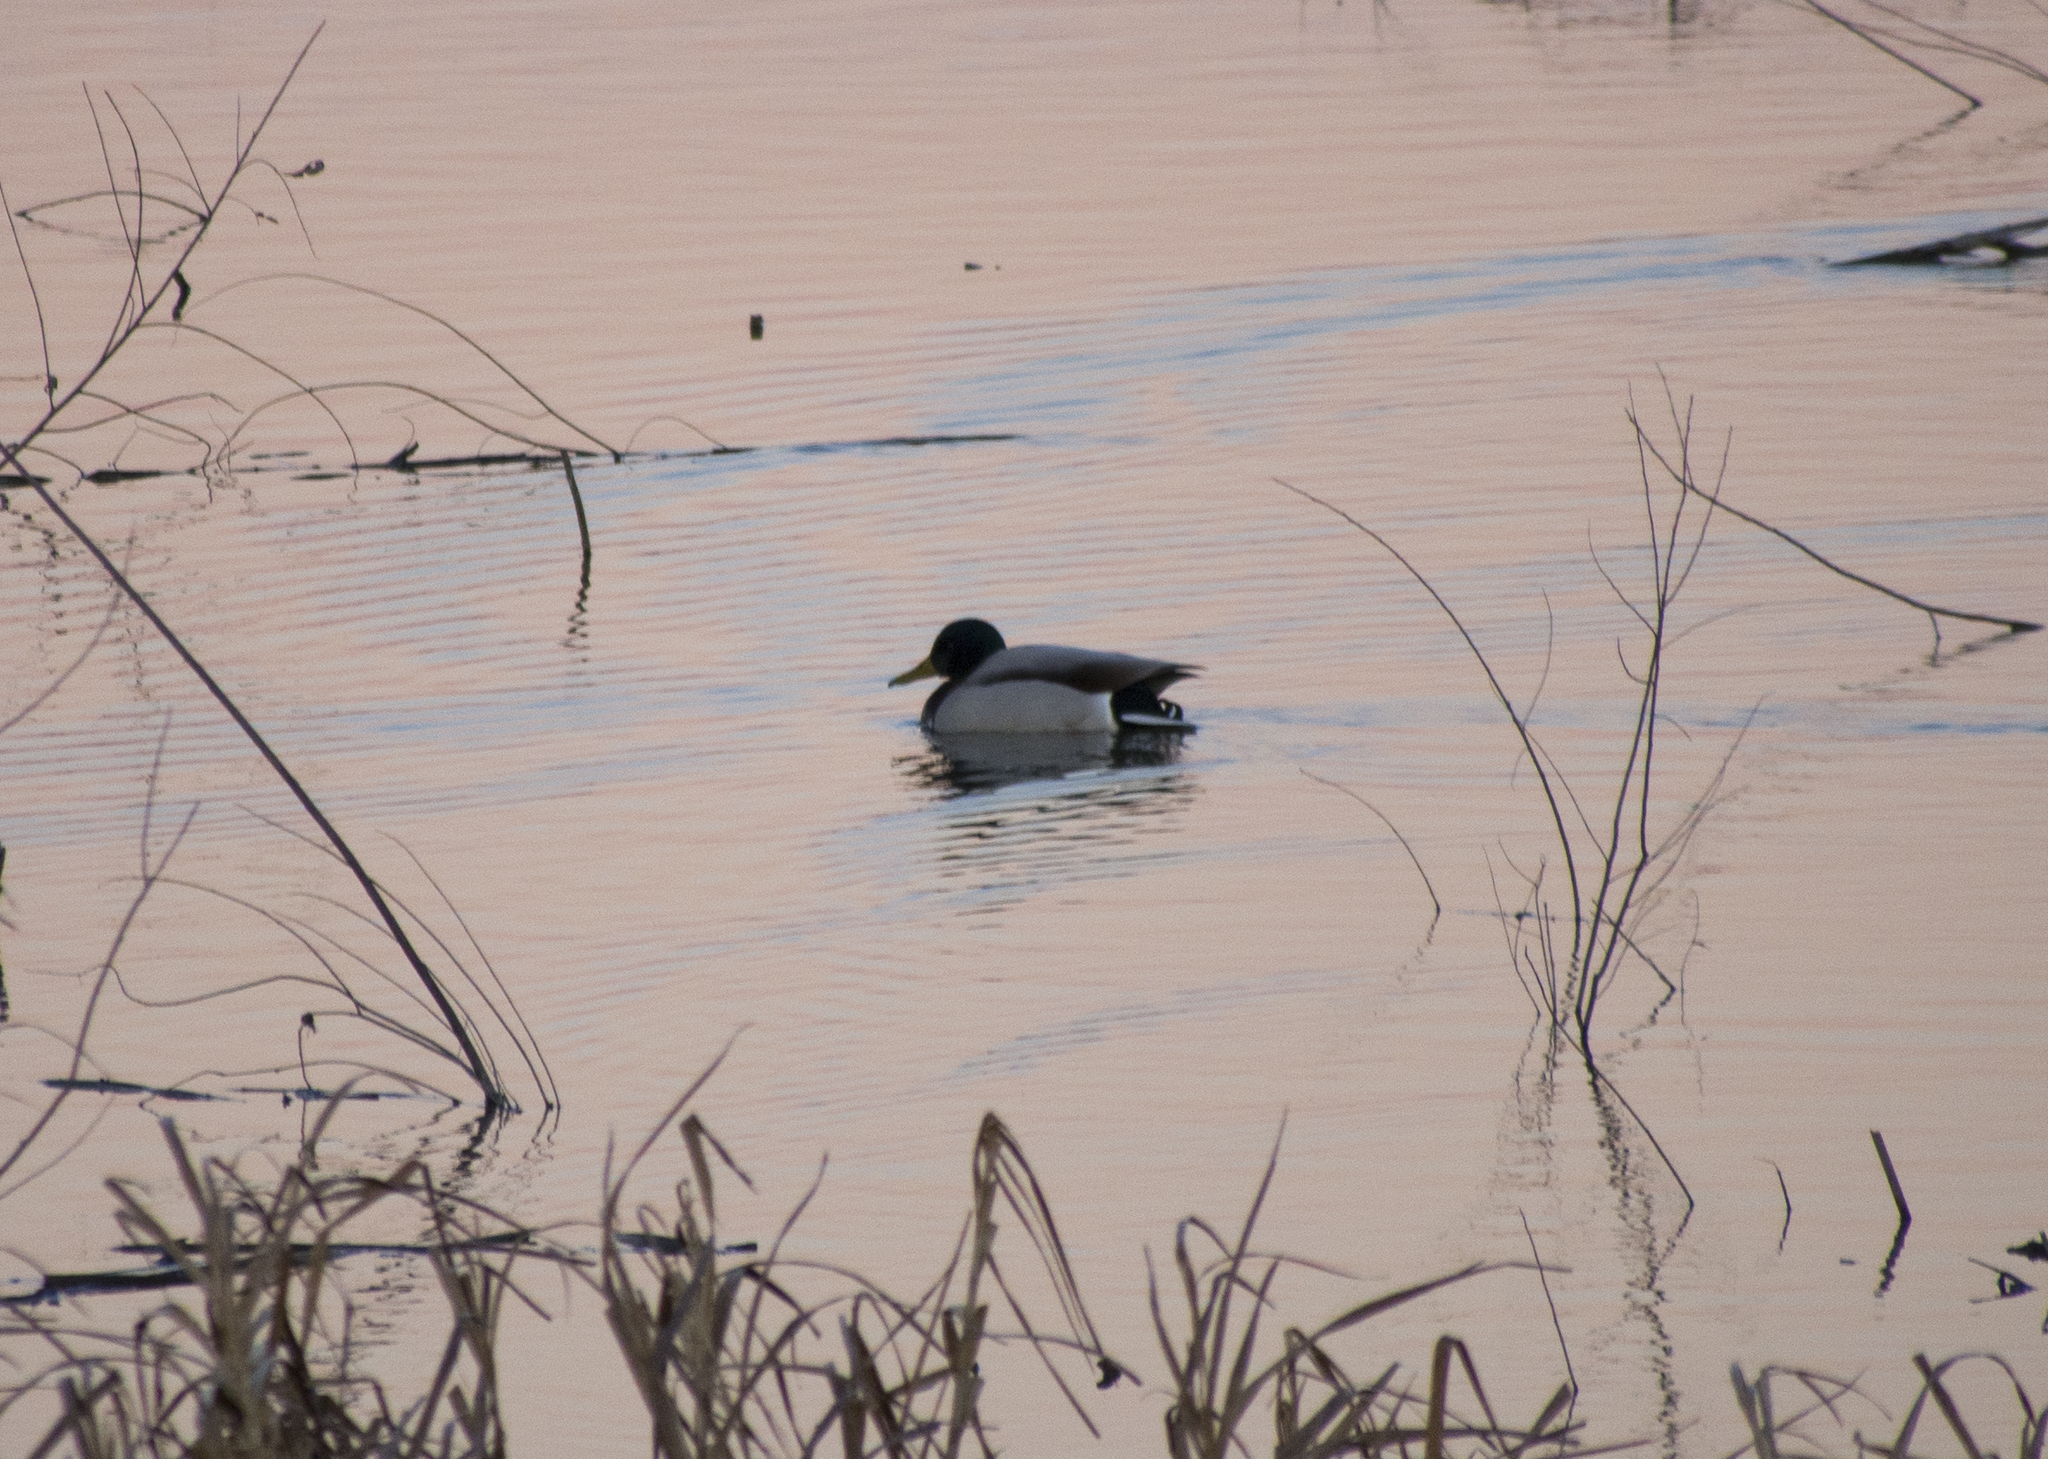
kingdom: Animalia
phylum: Chordata
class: Aves
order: Anseriformes
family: Anatidae
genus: Anas
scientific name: Anas platyrhynchos
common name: Mallard
